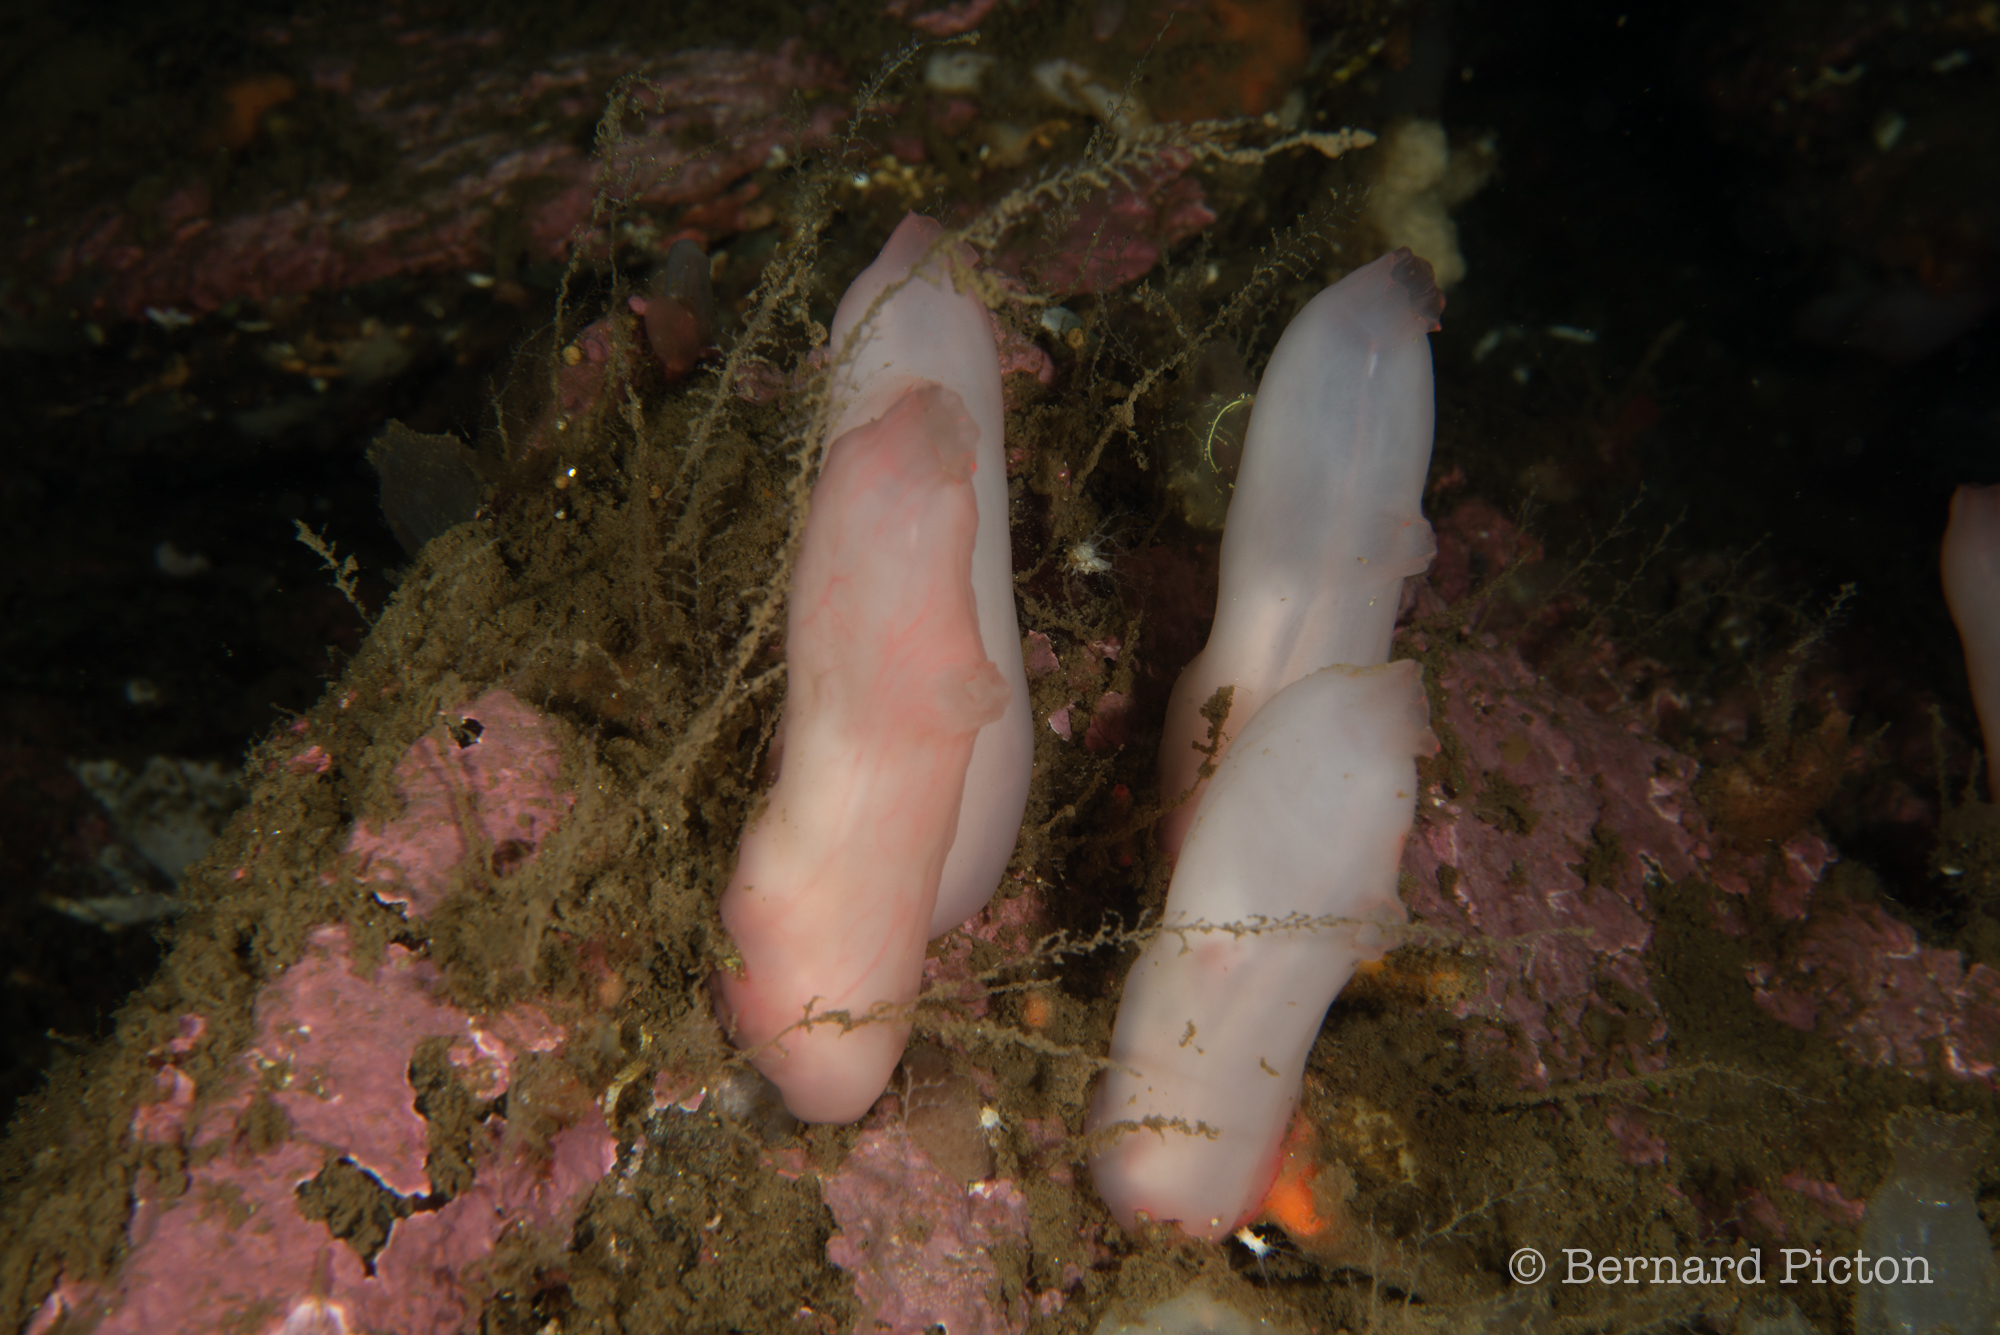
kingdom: Animalia
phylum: Chordata
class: Ascidiacea
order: Phlebobranchia
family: Ascidiidae
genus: Ascidia
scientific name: Ascidia virginea
